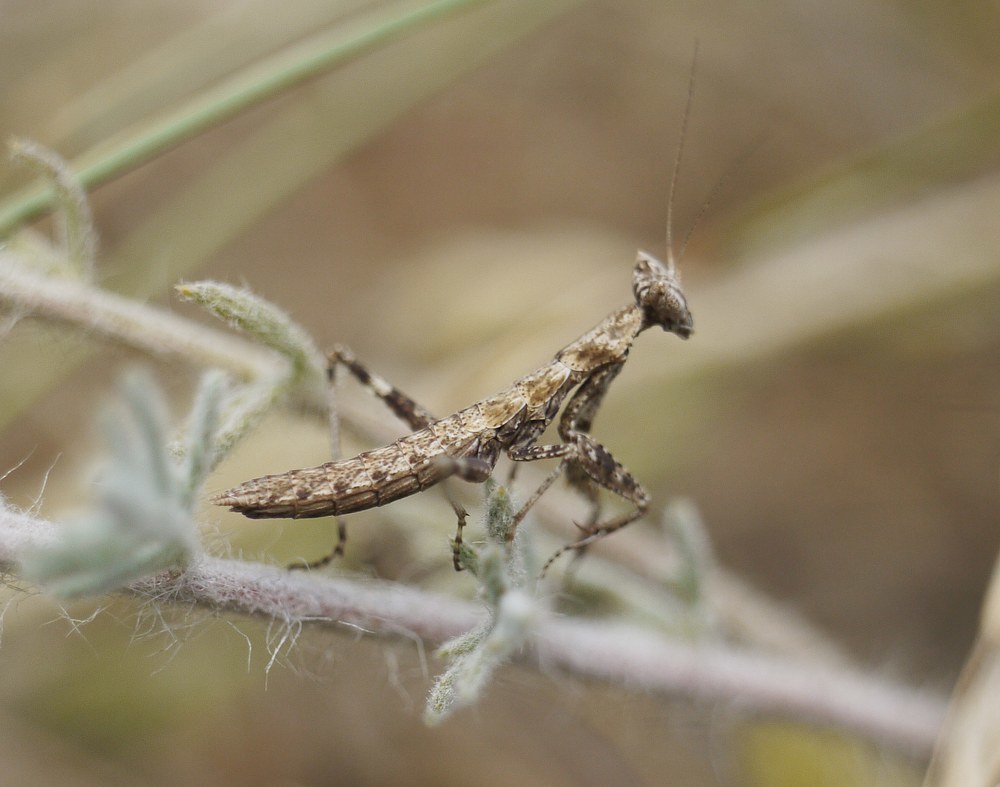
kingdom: Animalia
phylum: Arthropoda
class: Insecta
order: Mantodea
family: Amelidae
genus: Ameles
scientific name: Ameles heldreichi
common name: Heldreich's dwarf mantis
